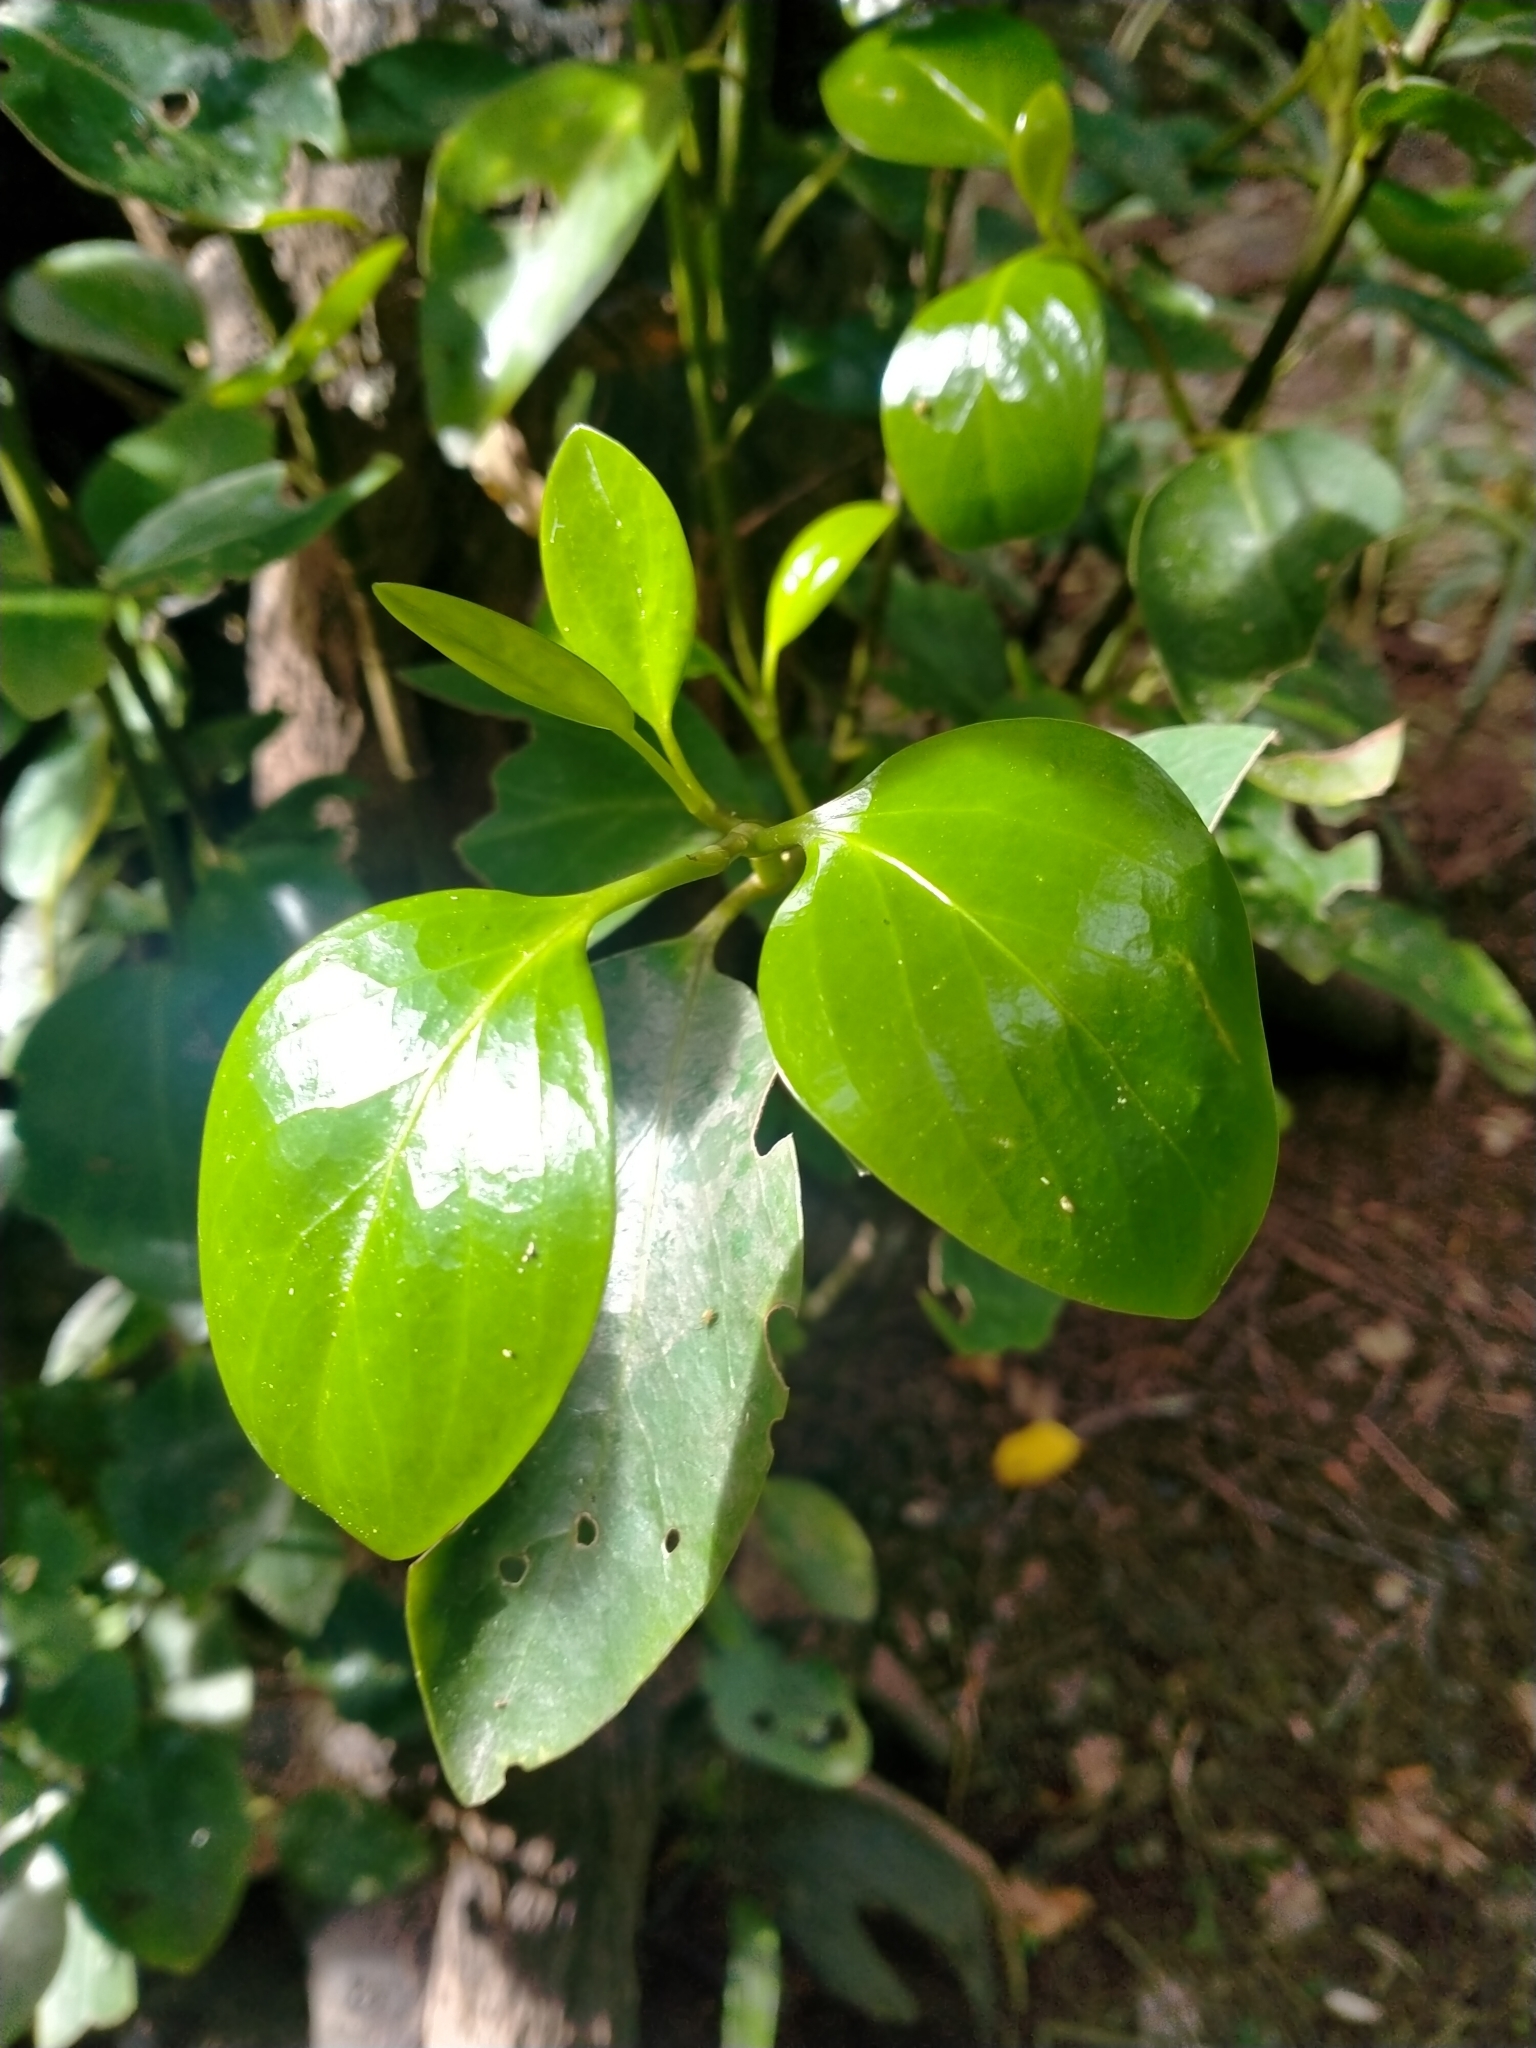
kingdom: Plantae
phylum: Tracheophyta
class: Magnoliopsida
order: Apiales
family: Griseliniaceae
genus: Griselinia
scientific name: Griselinia littoralis
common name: New zealand broadleaf
